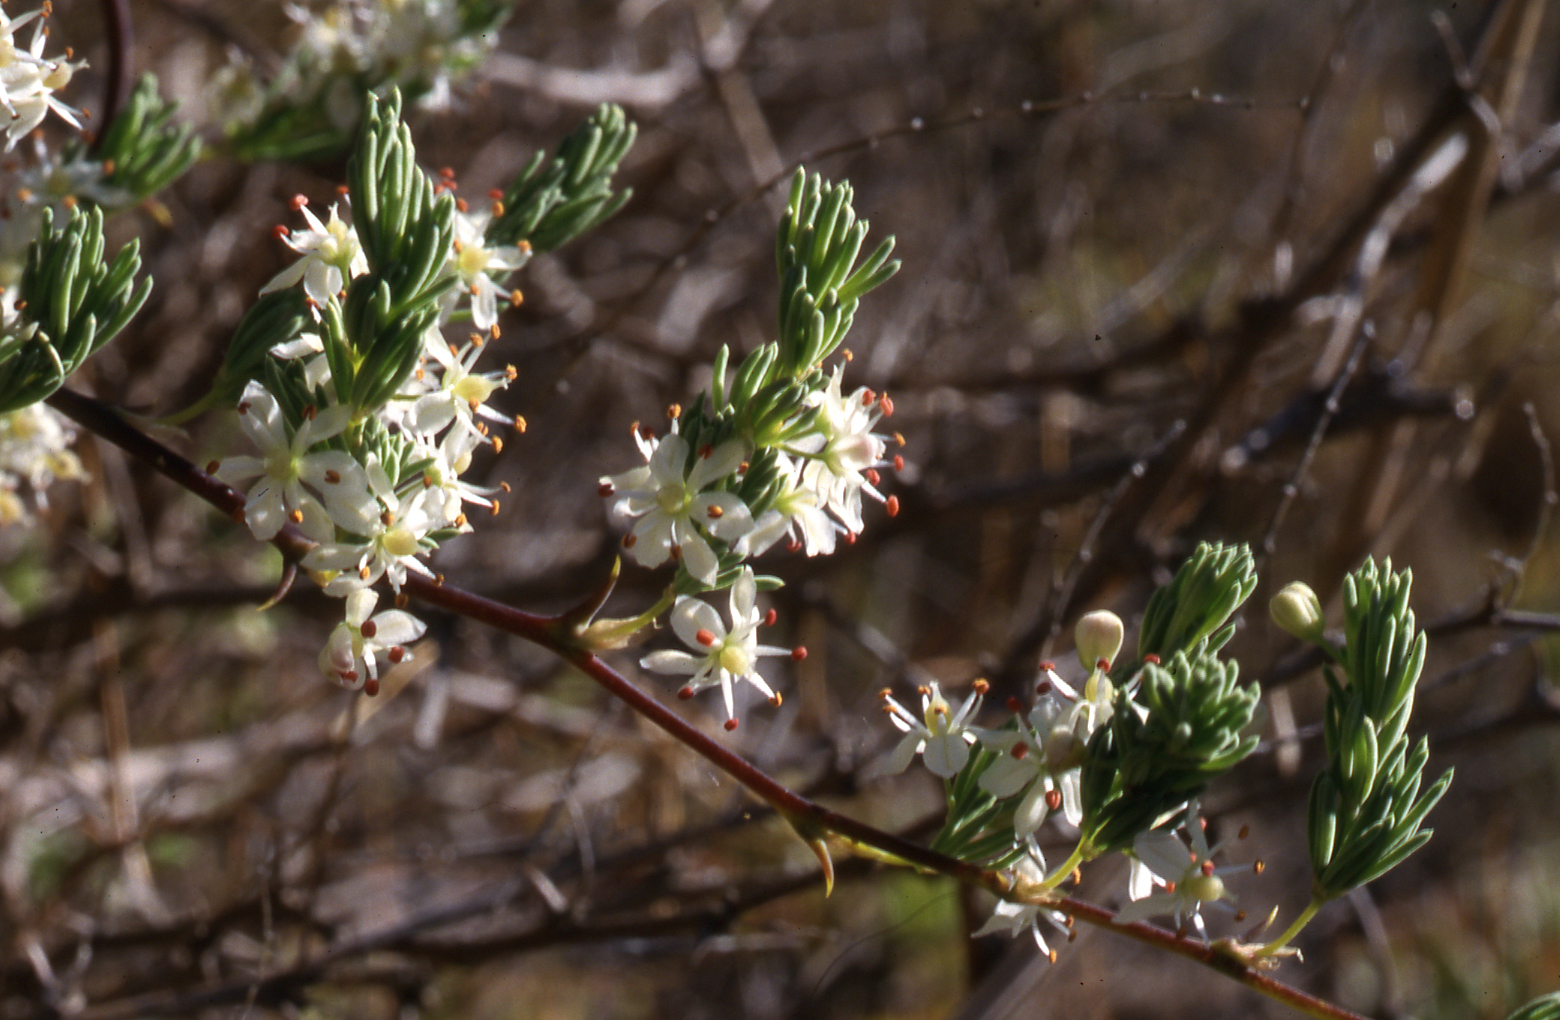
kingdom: Plantae
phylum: Tracheophyta
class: Liliopsida
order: Asparagales
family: Asparagaceae
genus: Asparagus
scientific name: Asparagus rubicundus
